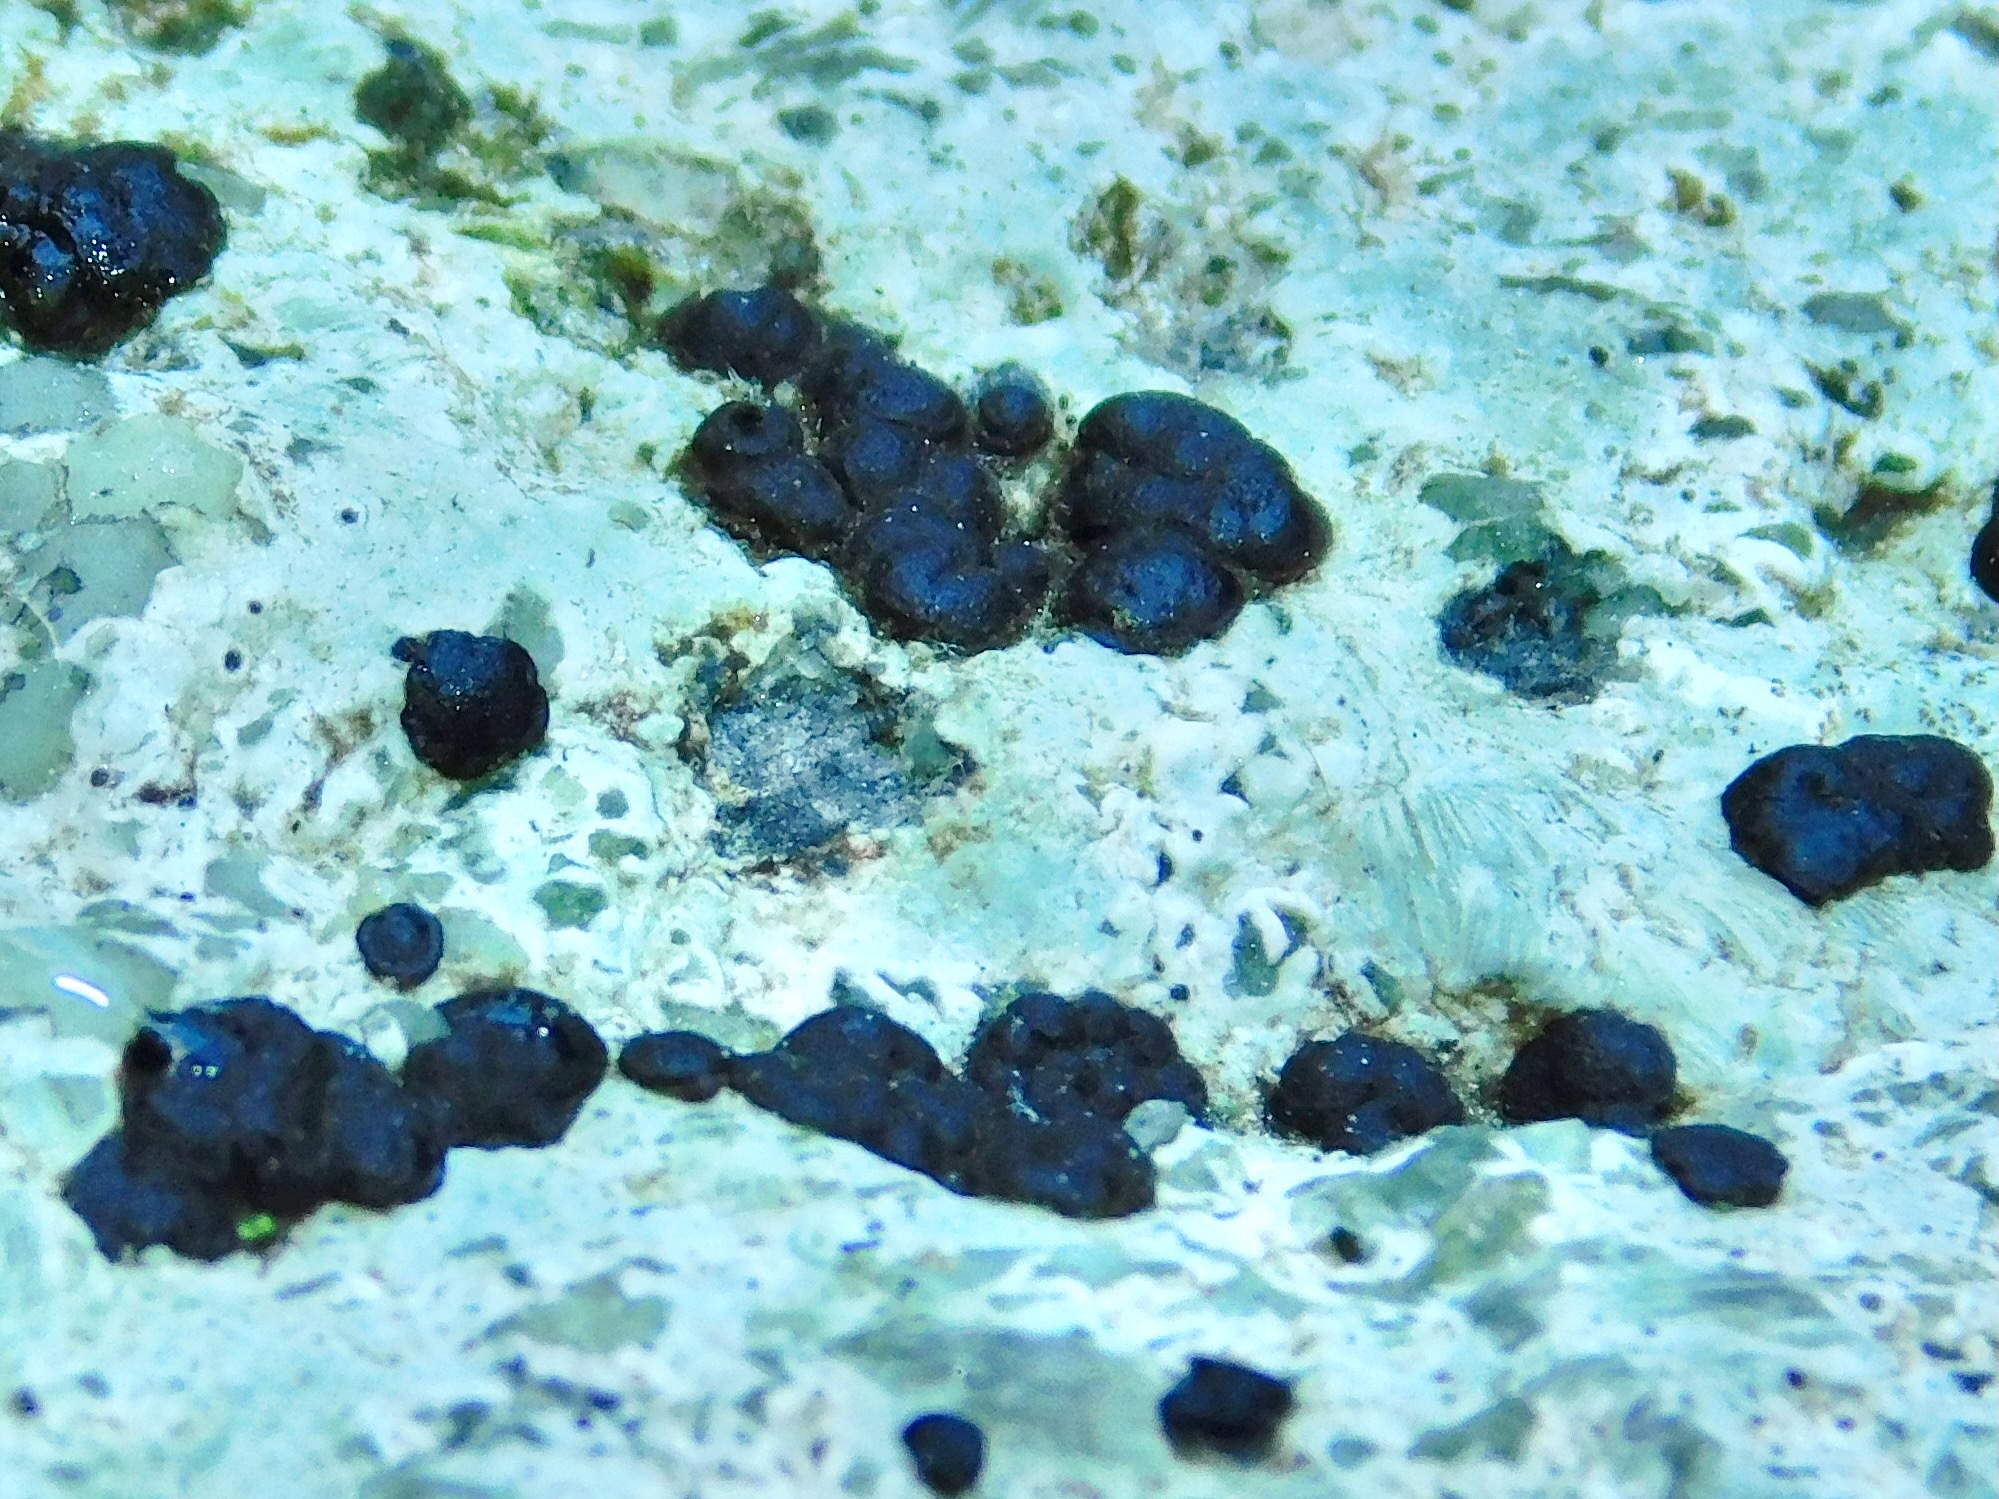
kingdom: Fungi
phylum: Ascomycota
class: Lecanoromycetes
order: Lecideales
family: Lecideaceae
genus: Porpidia
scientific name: Porpidia crustulata
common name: Concentric boulder lichen
